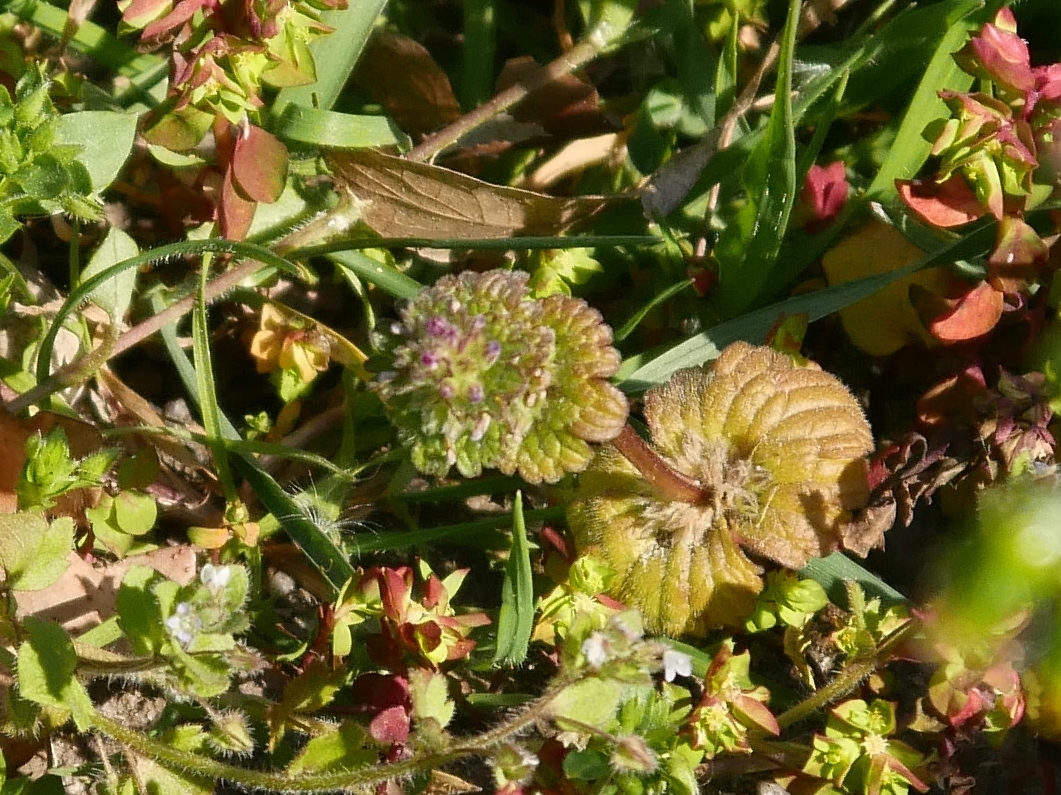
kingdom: Plantae
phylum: Tracheophyta
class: Magnoliopsida
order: Lamiales
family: Lamiaceae
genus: Lamium
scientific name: Lamium amplexicaule
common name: Henbit dead-nettle
